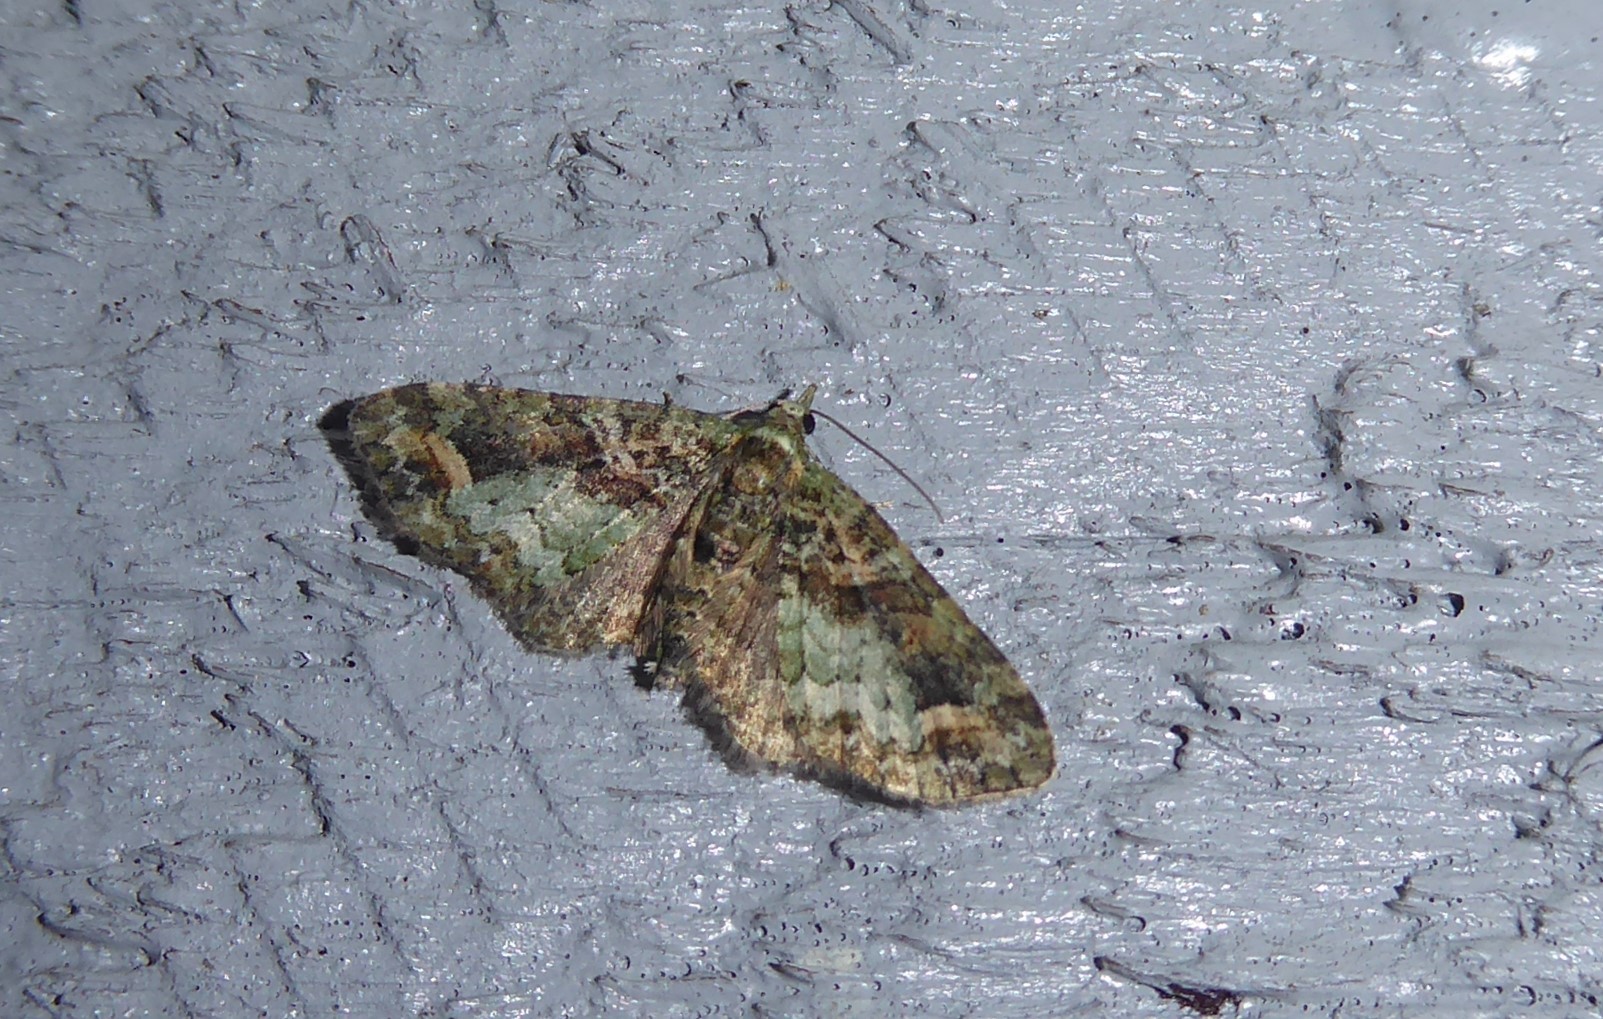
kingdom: Animalia
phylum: Arthropoda
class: Insecta
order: Lepidoptera
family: Geometridae
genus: Idaea
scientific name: Idaea mutanda
